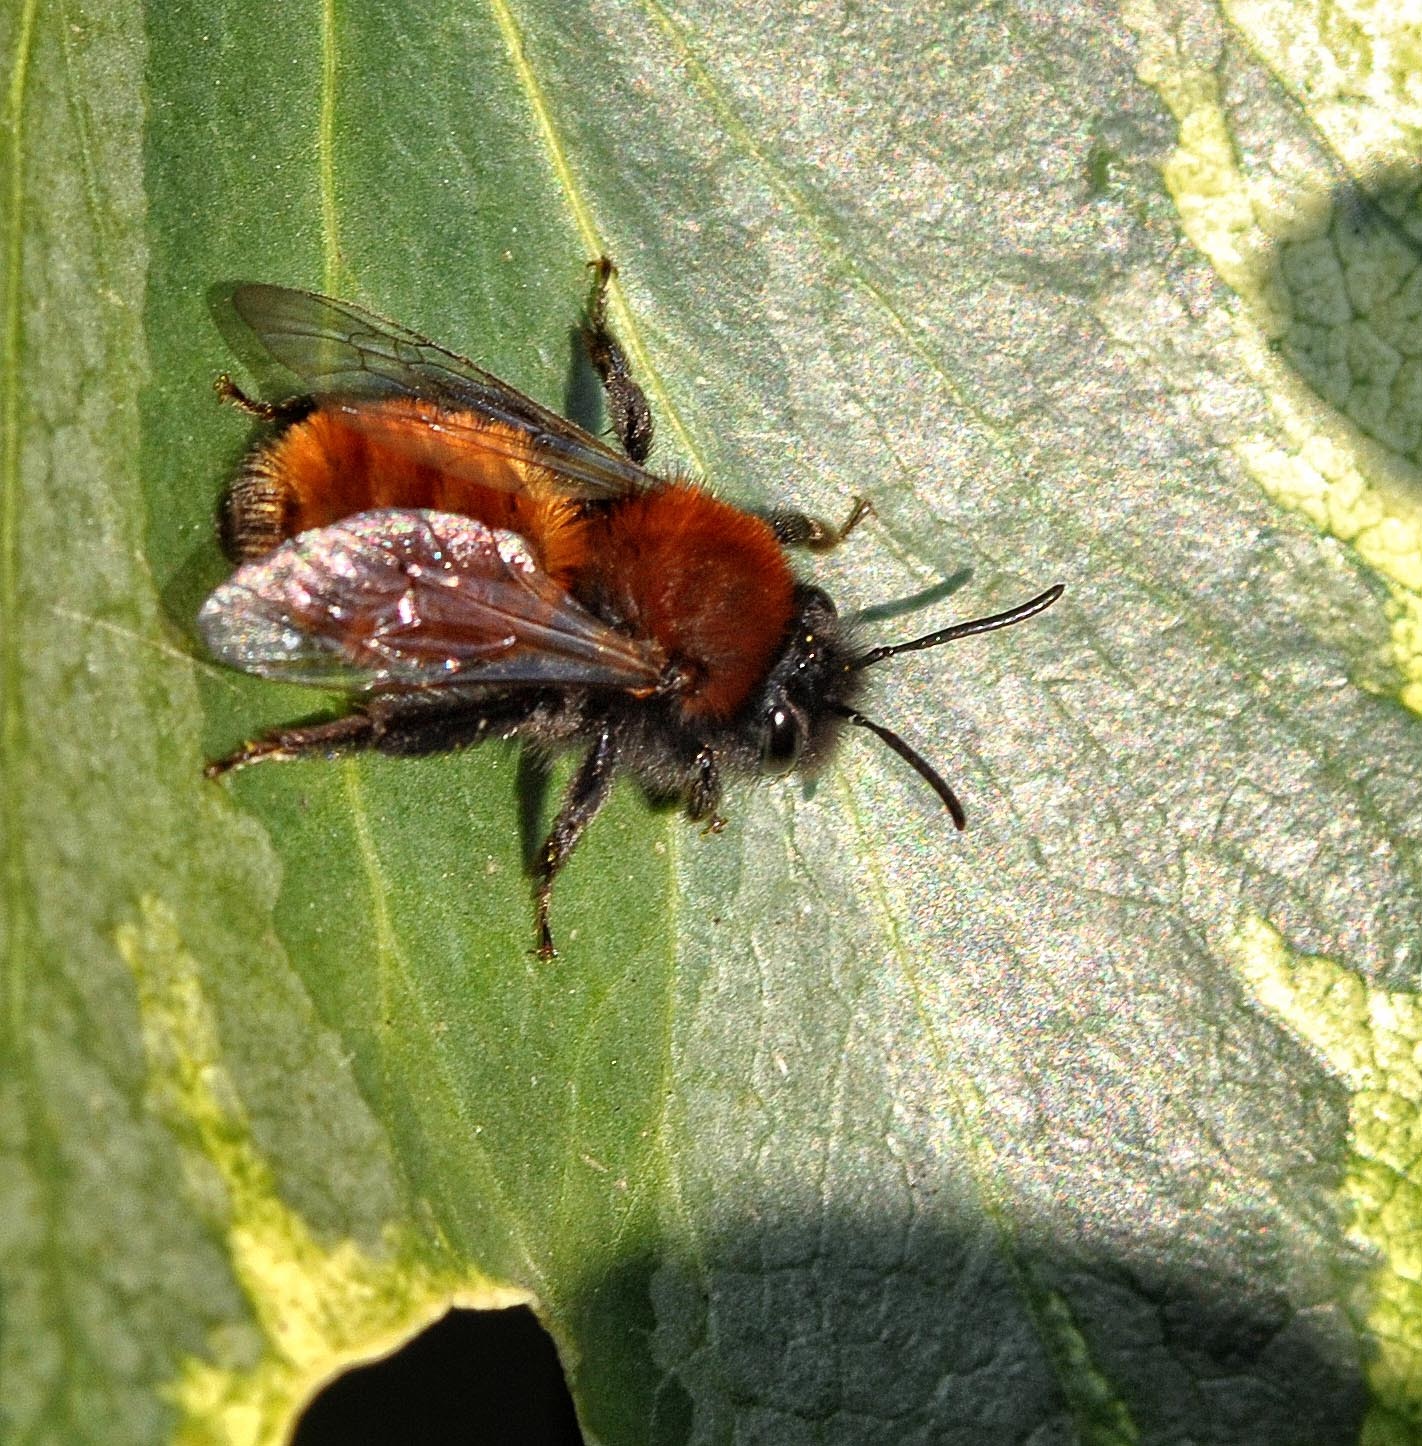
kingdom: Animalia
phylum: Arthropoda
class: Insecta
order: Hymenoptera
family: Andrenidae
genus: Andrena
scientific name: Andrena fulva
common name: Tawny mining bee
